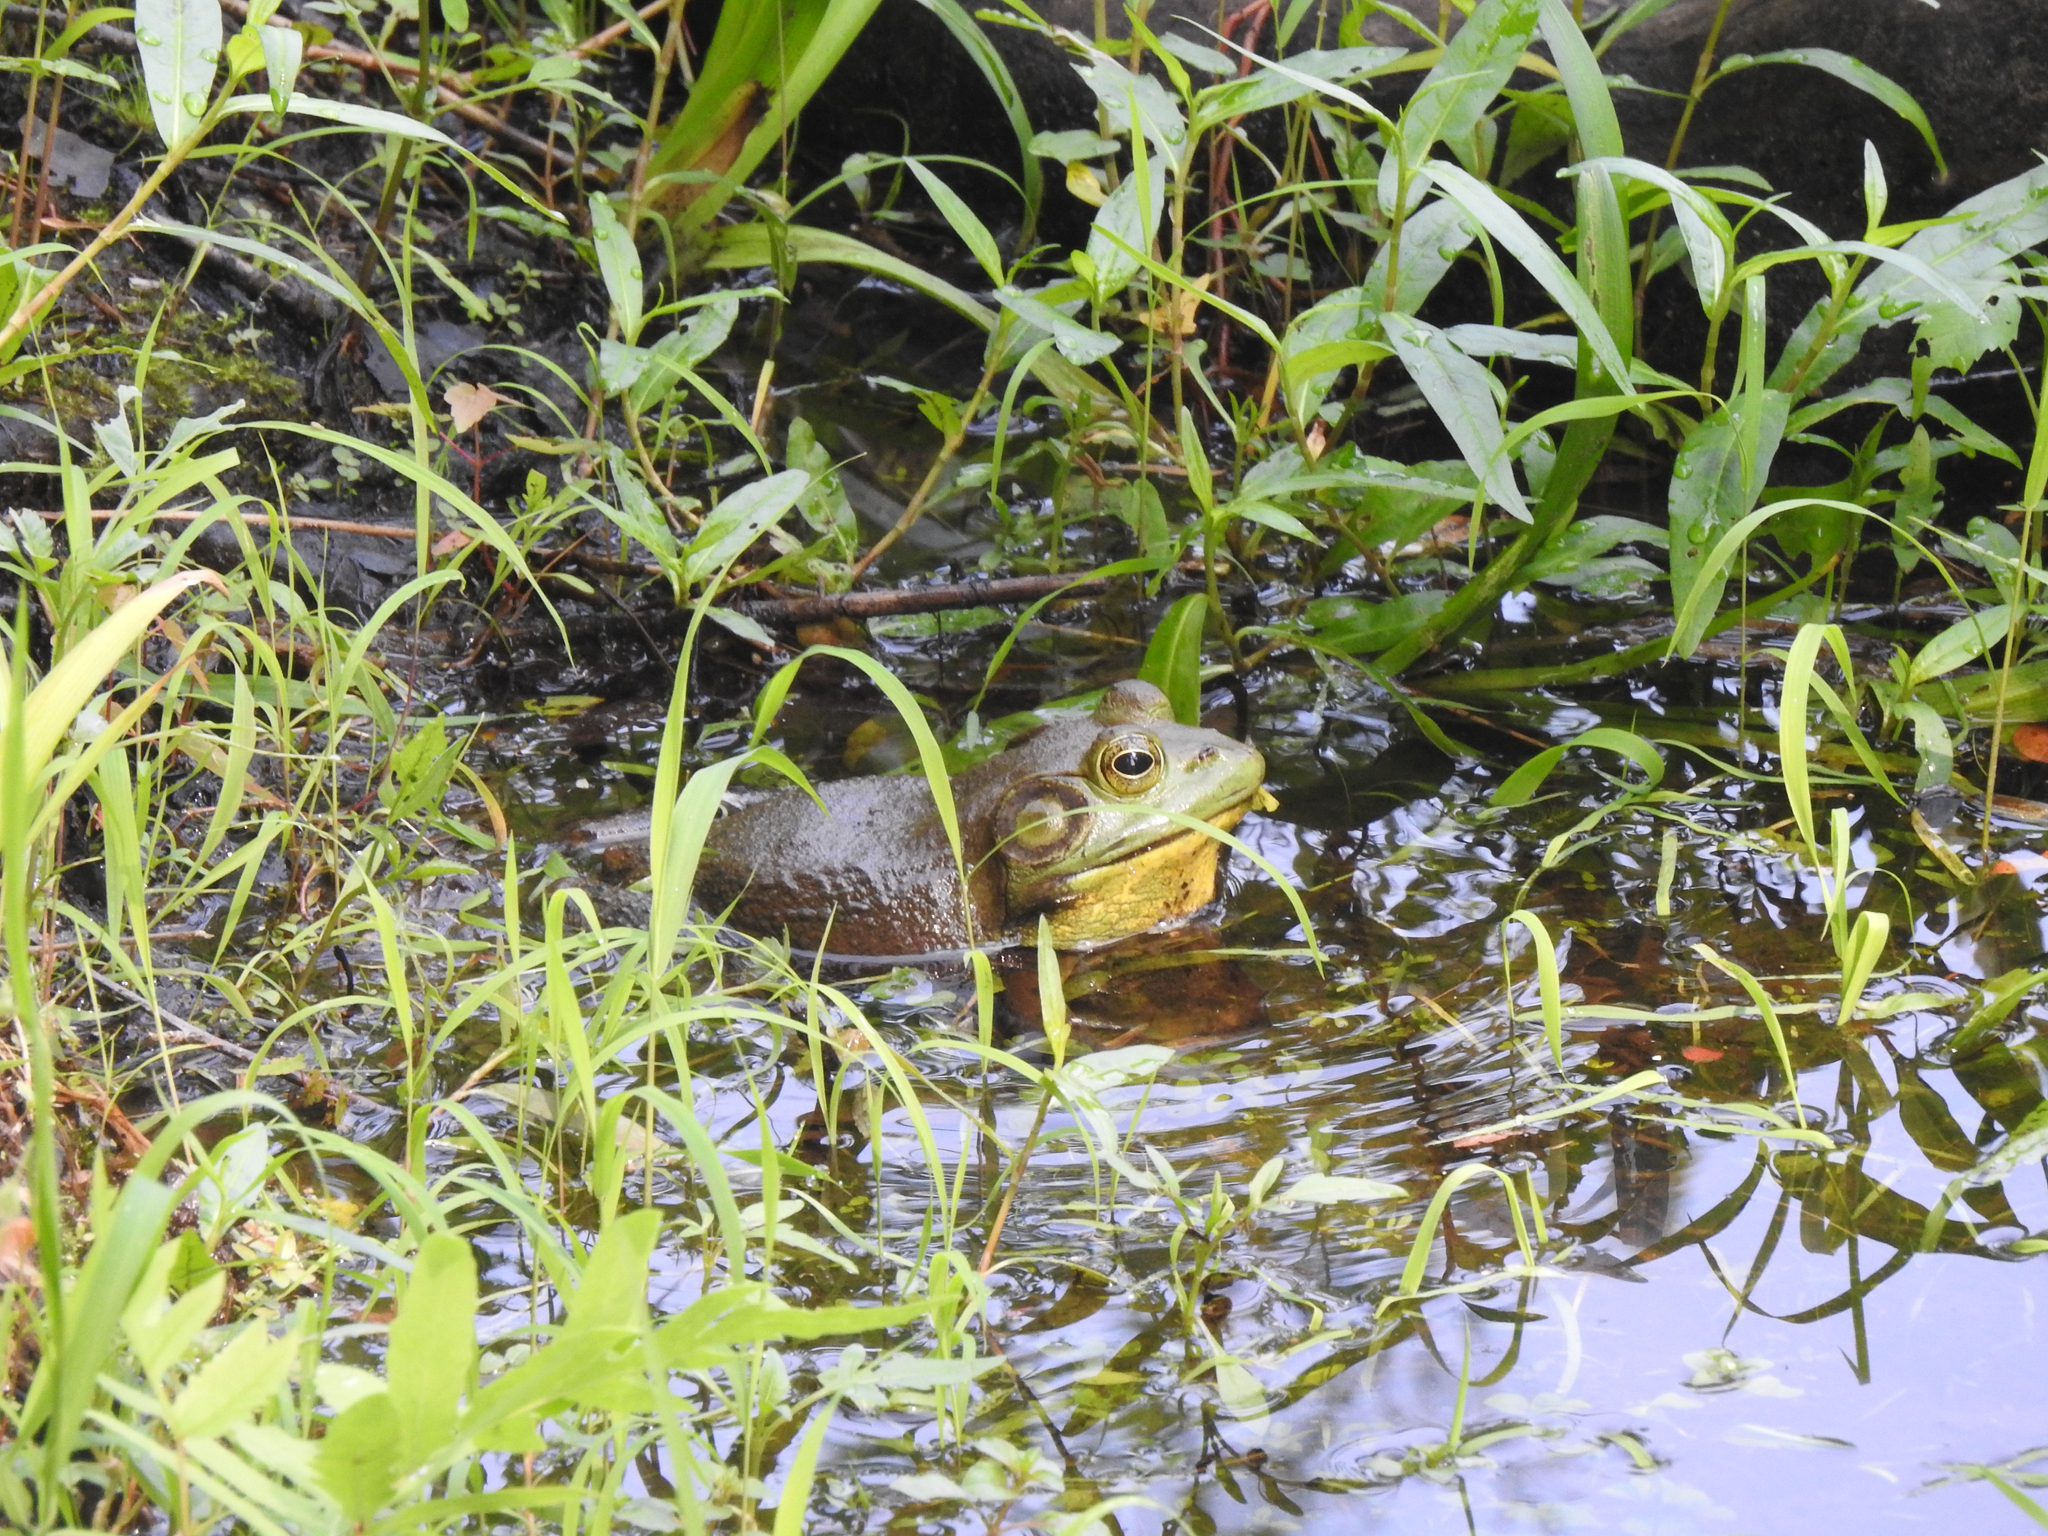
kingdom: Animalia
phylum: Chordata
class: Amphibia
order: Anura
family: Ranidae
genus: Lithobates
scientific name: Lithobates catesbeianus
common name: American bullfrog
